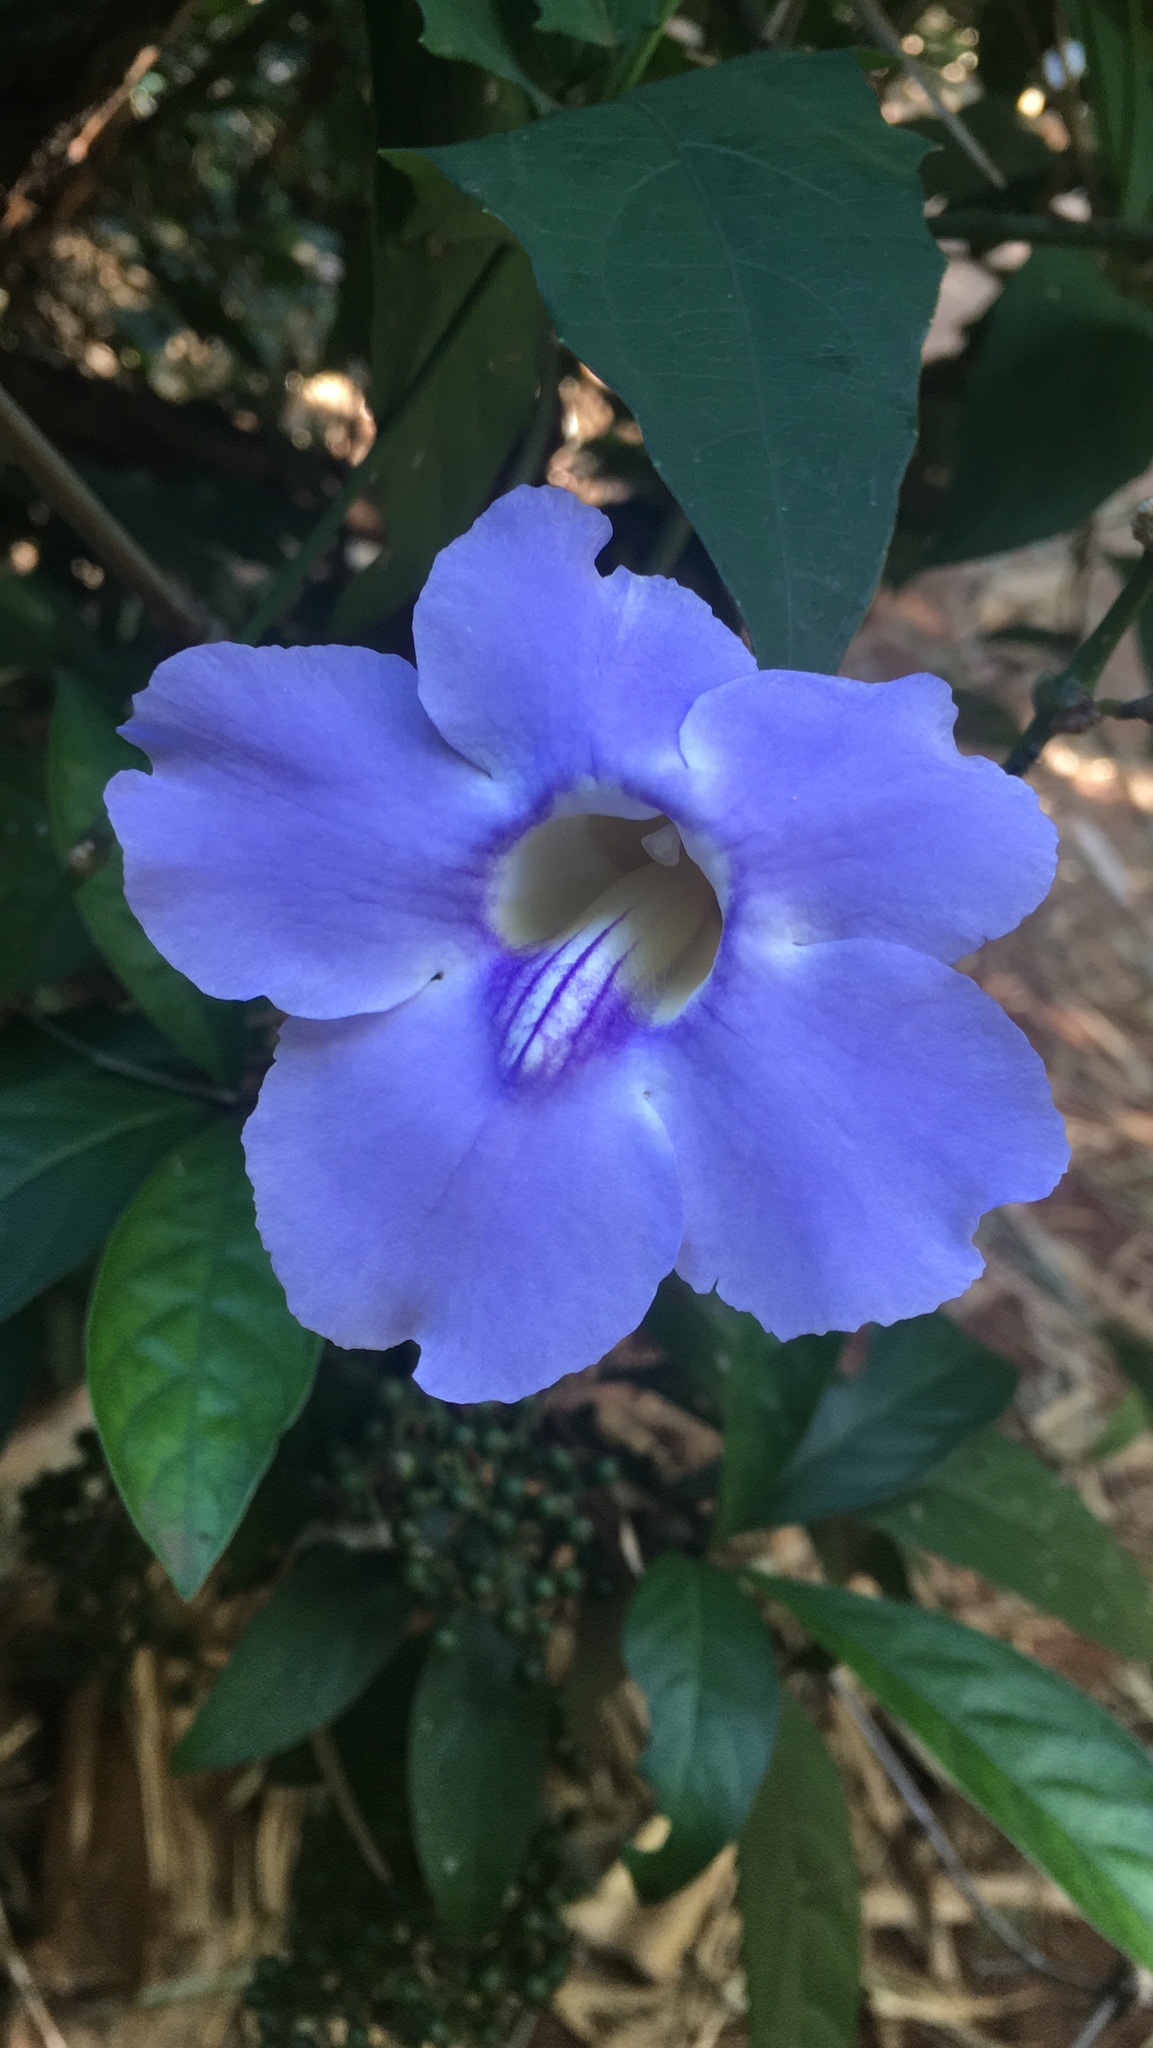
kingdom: Plantae
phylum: Tracheophyta
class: Magnoliopsida
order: Lamiales
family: Acanthaceae
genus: Thunbergia
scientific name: Thunbergia grandiflora
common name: Bengal trumpet
